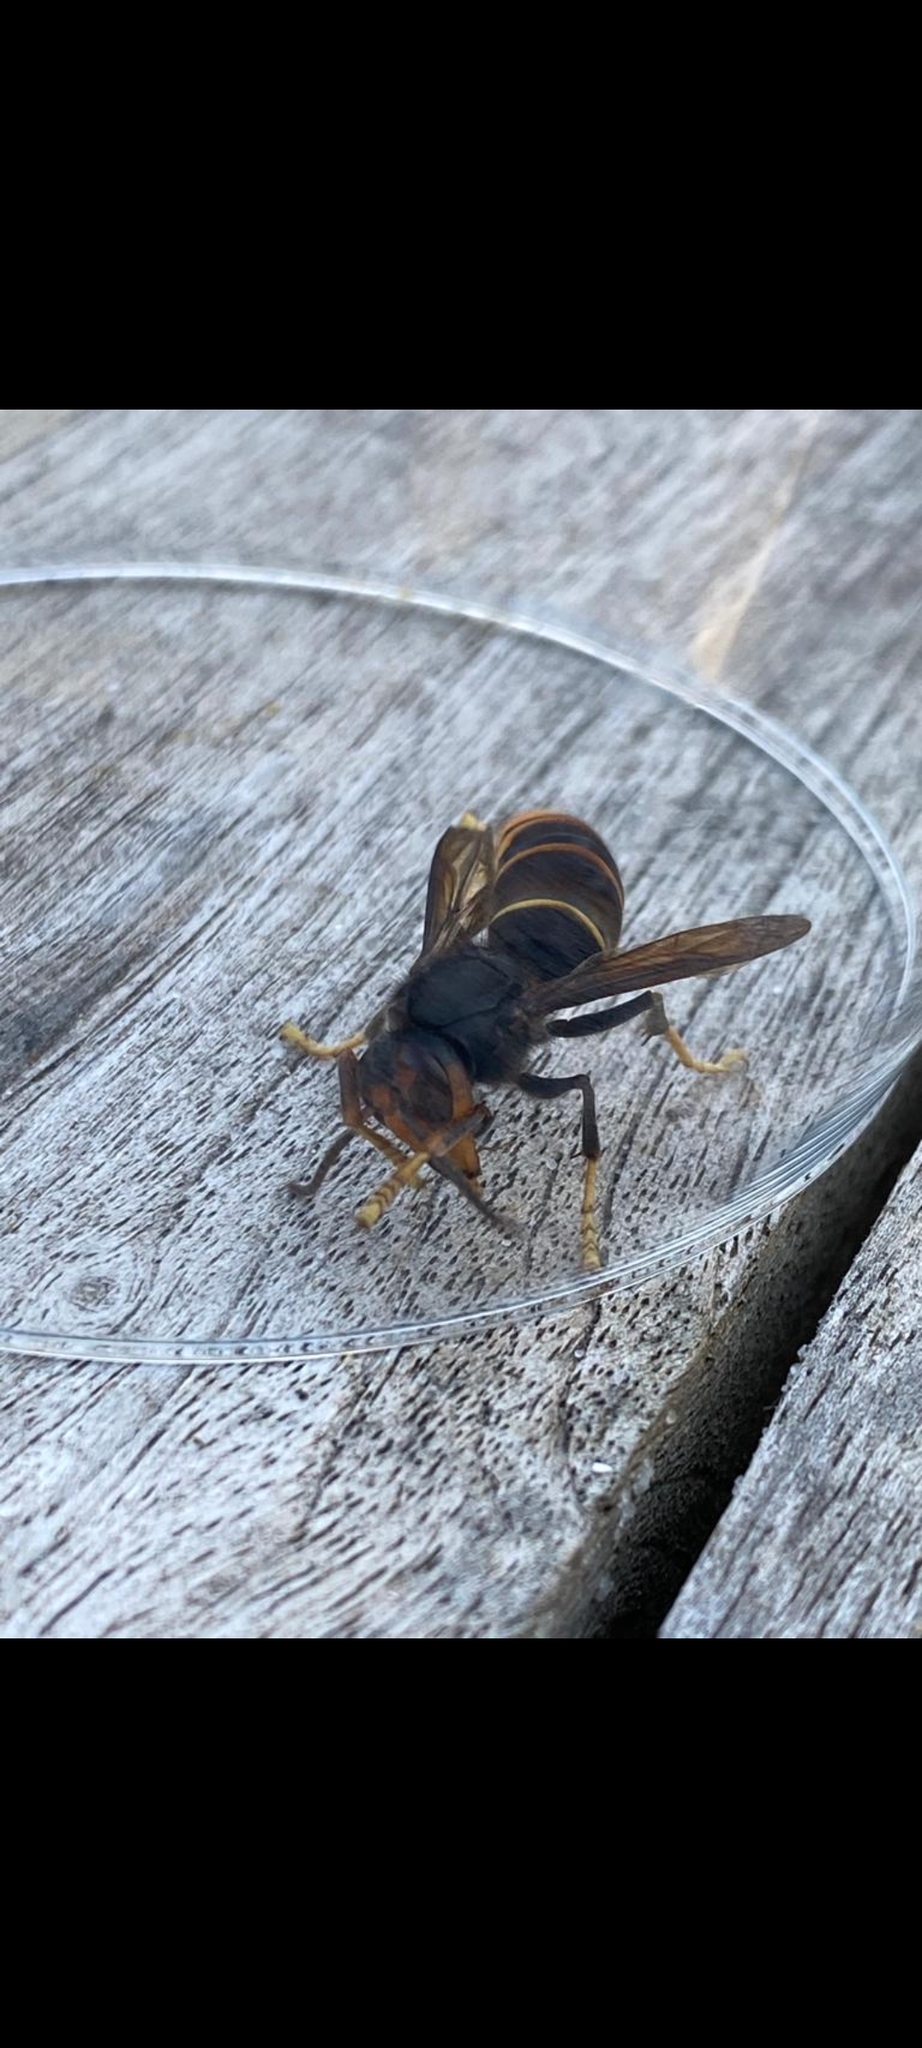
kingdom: Animalia
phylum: Arthropoda
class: Insecta
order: Hymenoptera
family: Vespidae
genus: Vespa
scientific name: Vespa velutina
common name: Asian hornet
